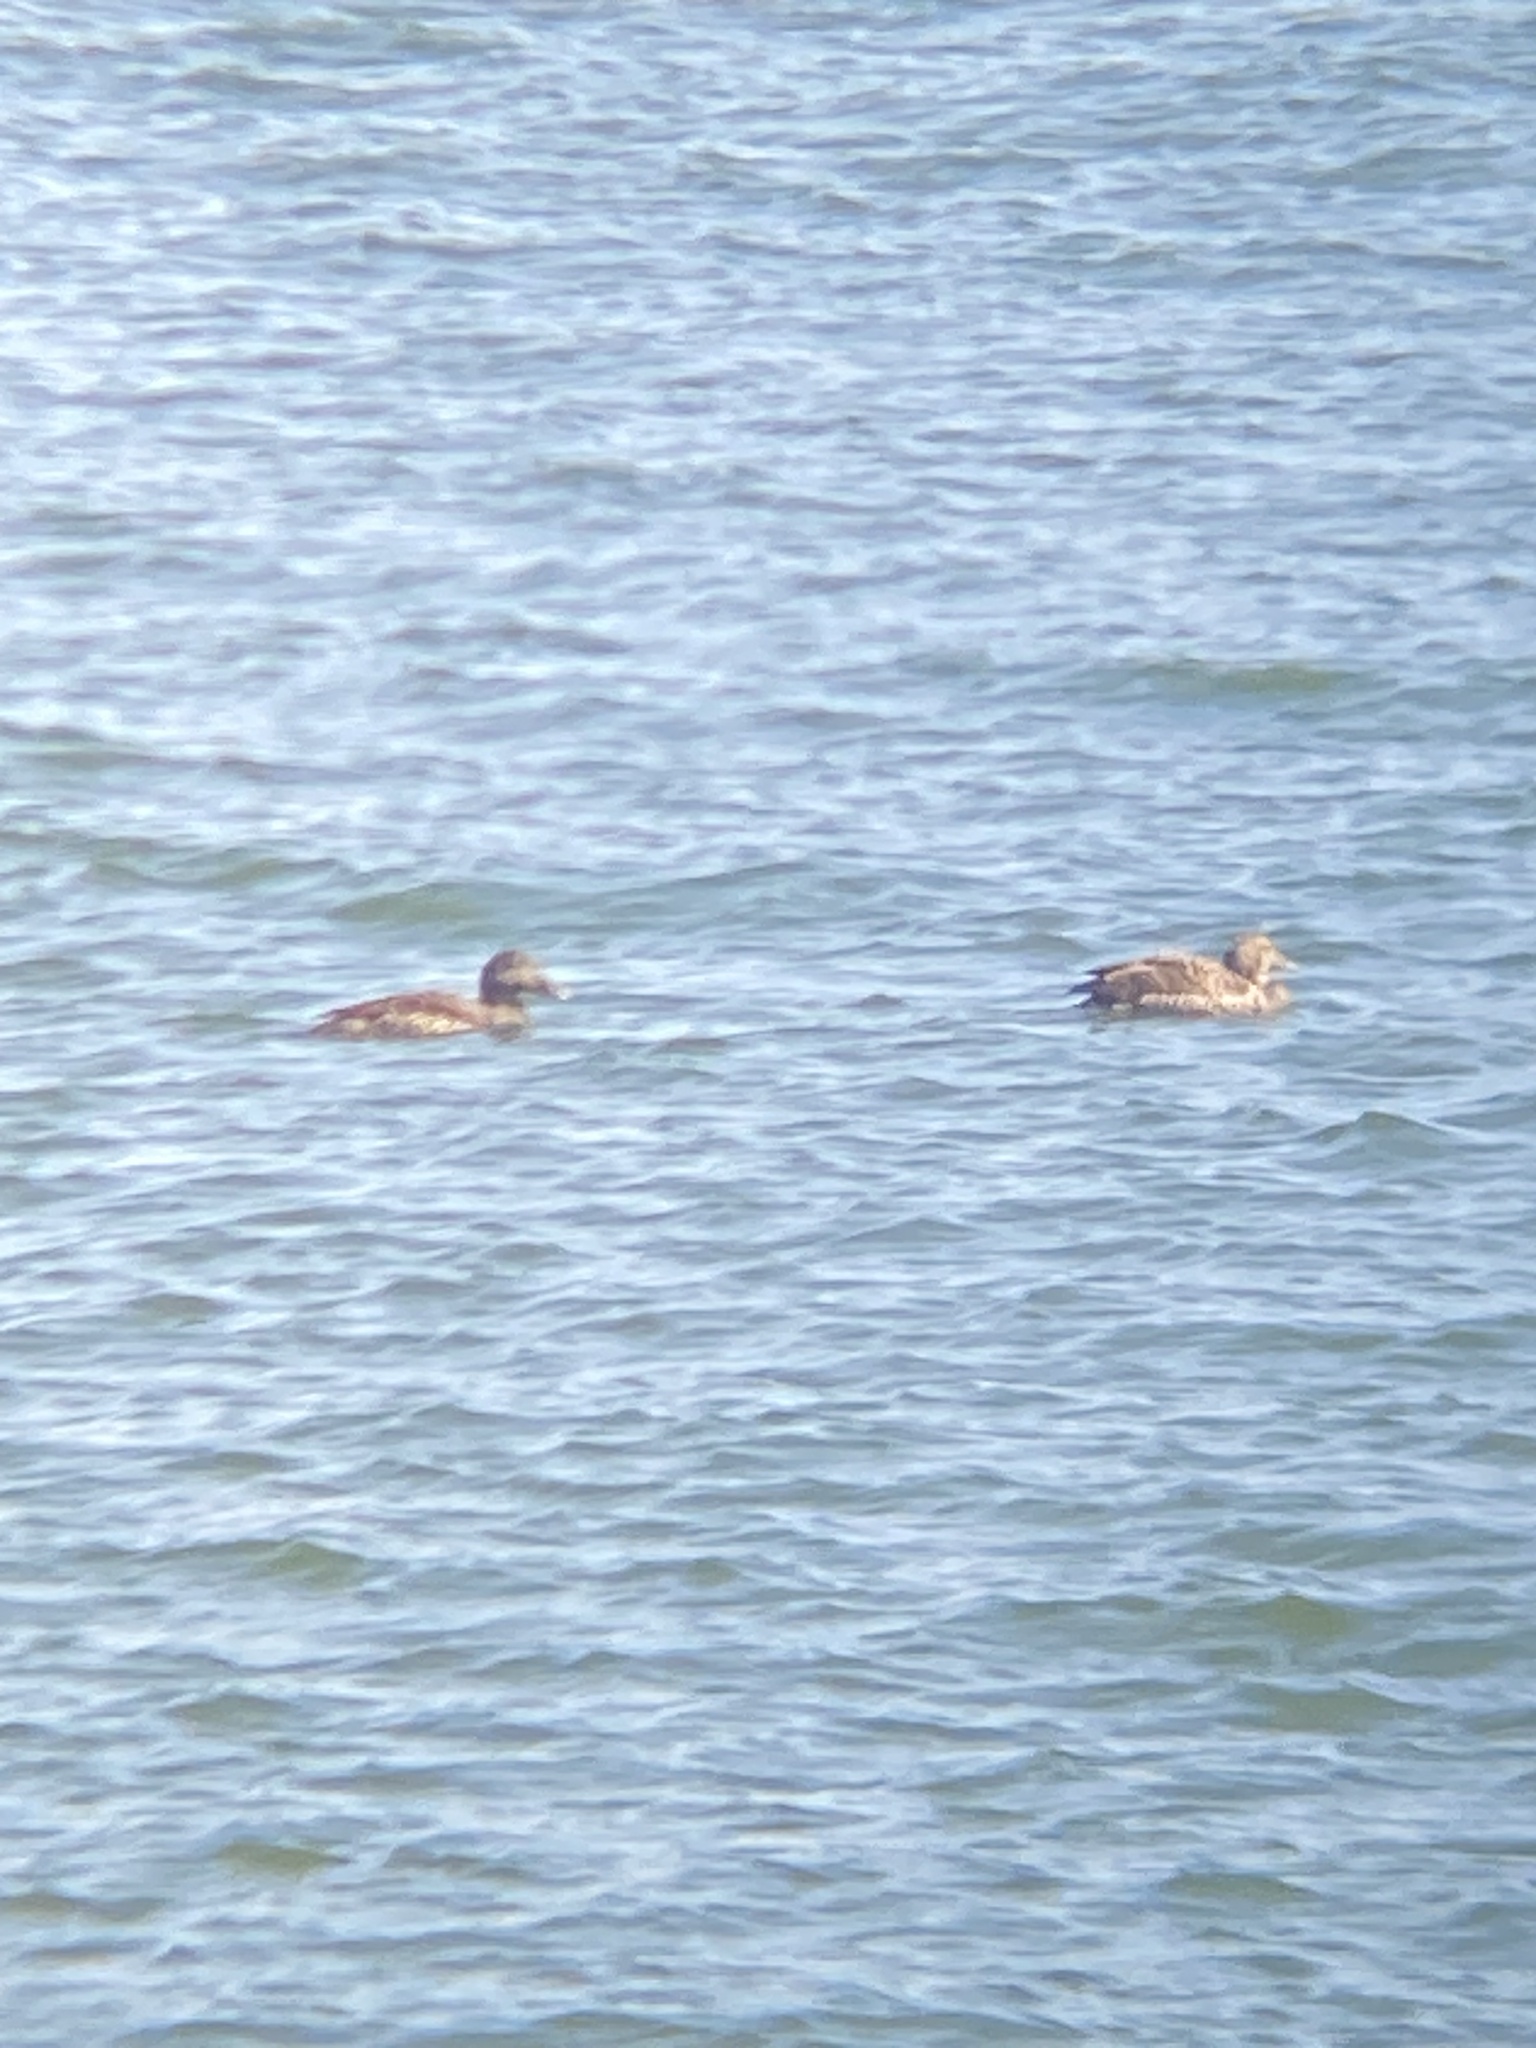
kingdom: Animalia
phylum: Chordata
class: Aves
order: Anseriformes
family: Anatidae
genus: Somateria
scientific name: Somateria mollissima
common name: Common eider
